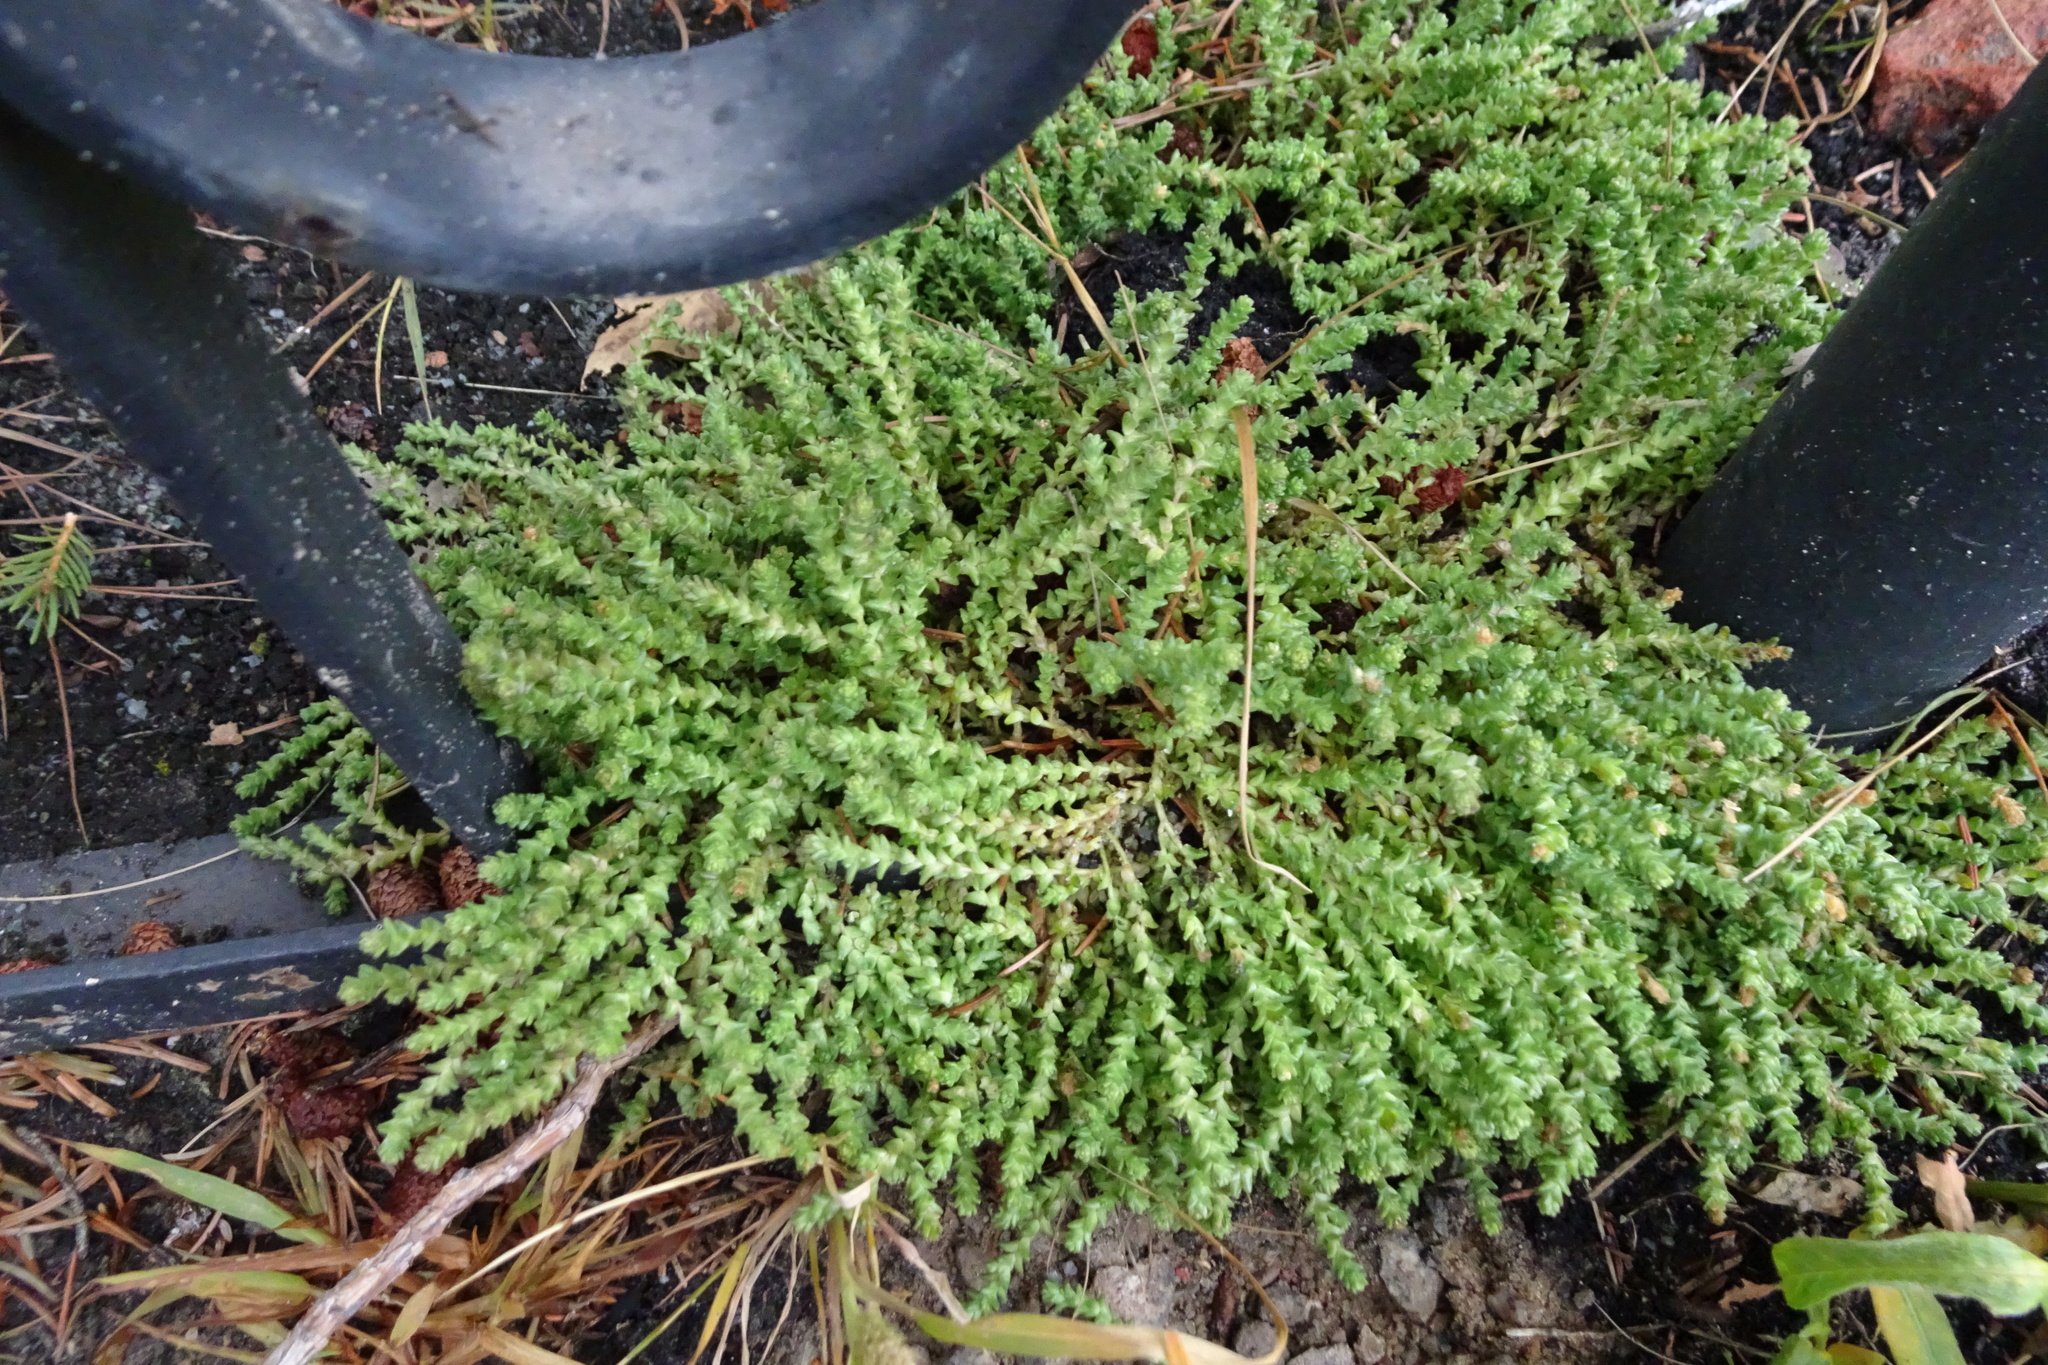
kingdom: Plantae
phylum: Tracheophyta
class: Magnoliopsida
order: Saxifragales
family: Crassulaceae
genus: Sedum
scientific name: Sedum acre
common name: Biting stonecrop
